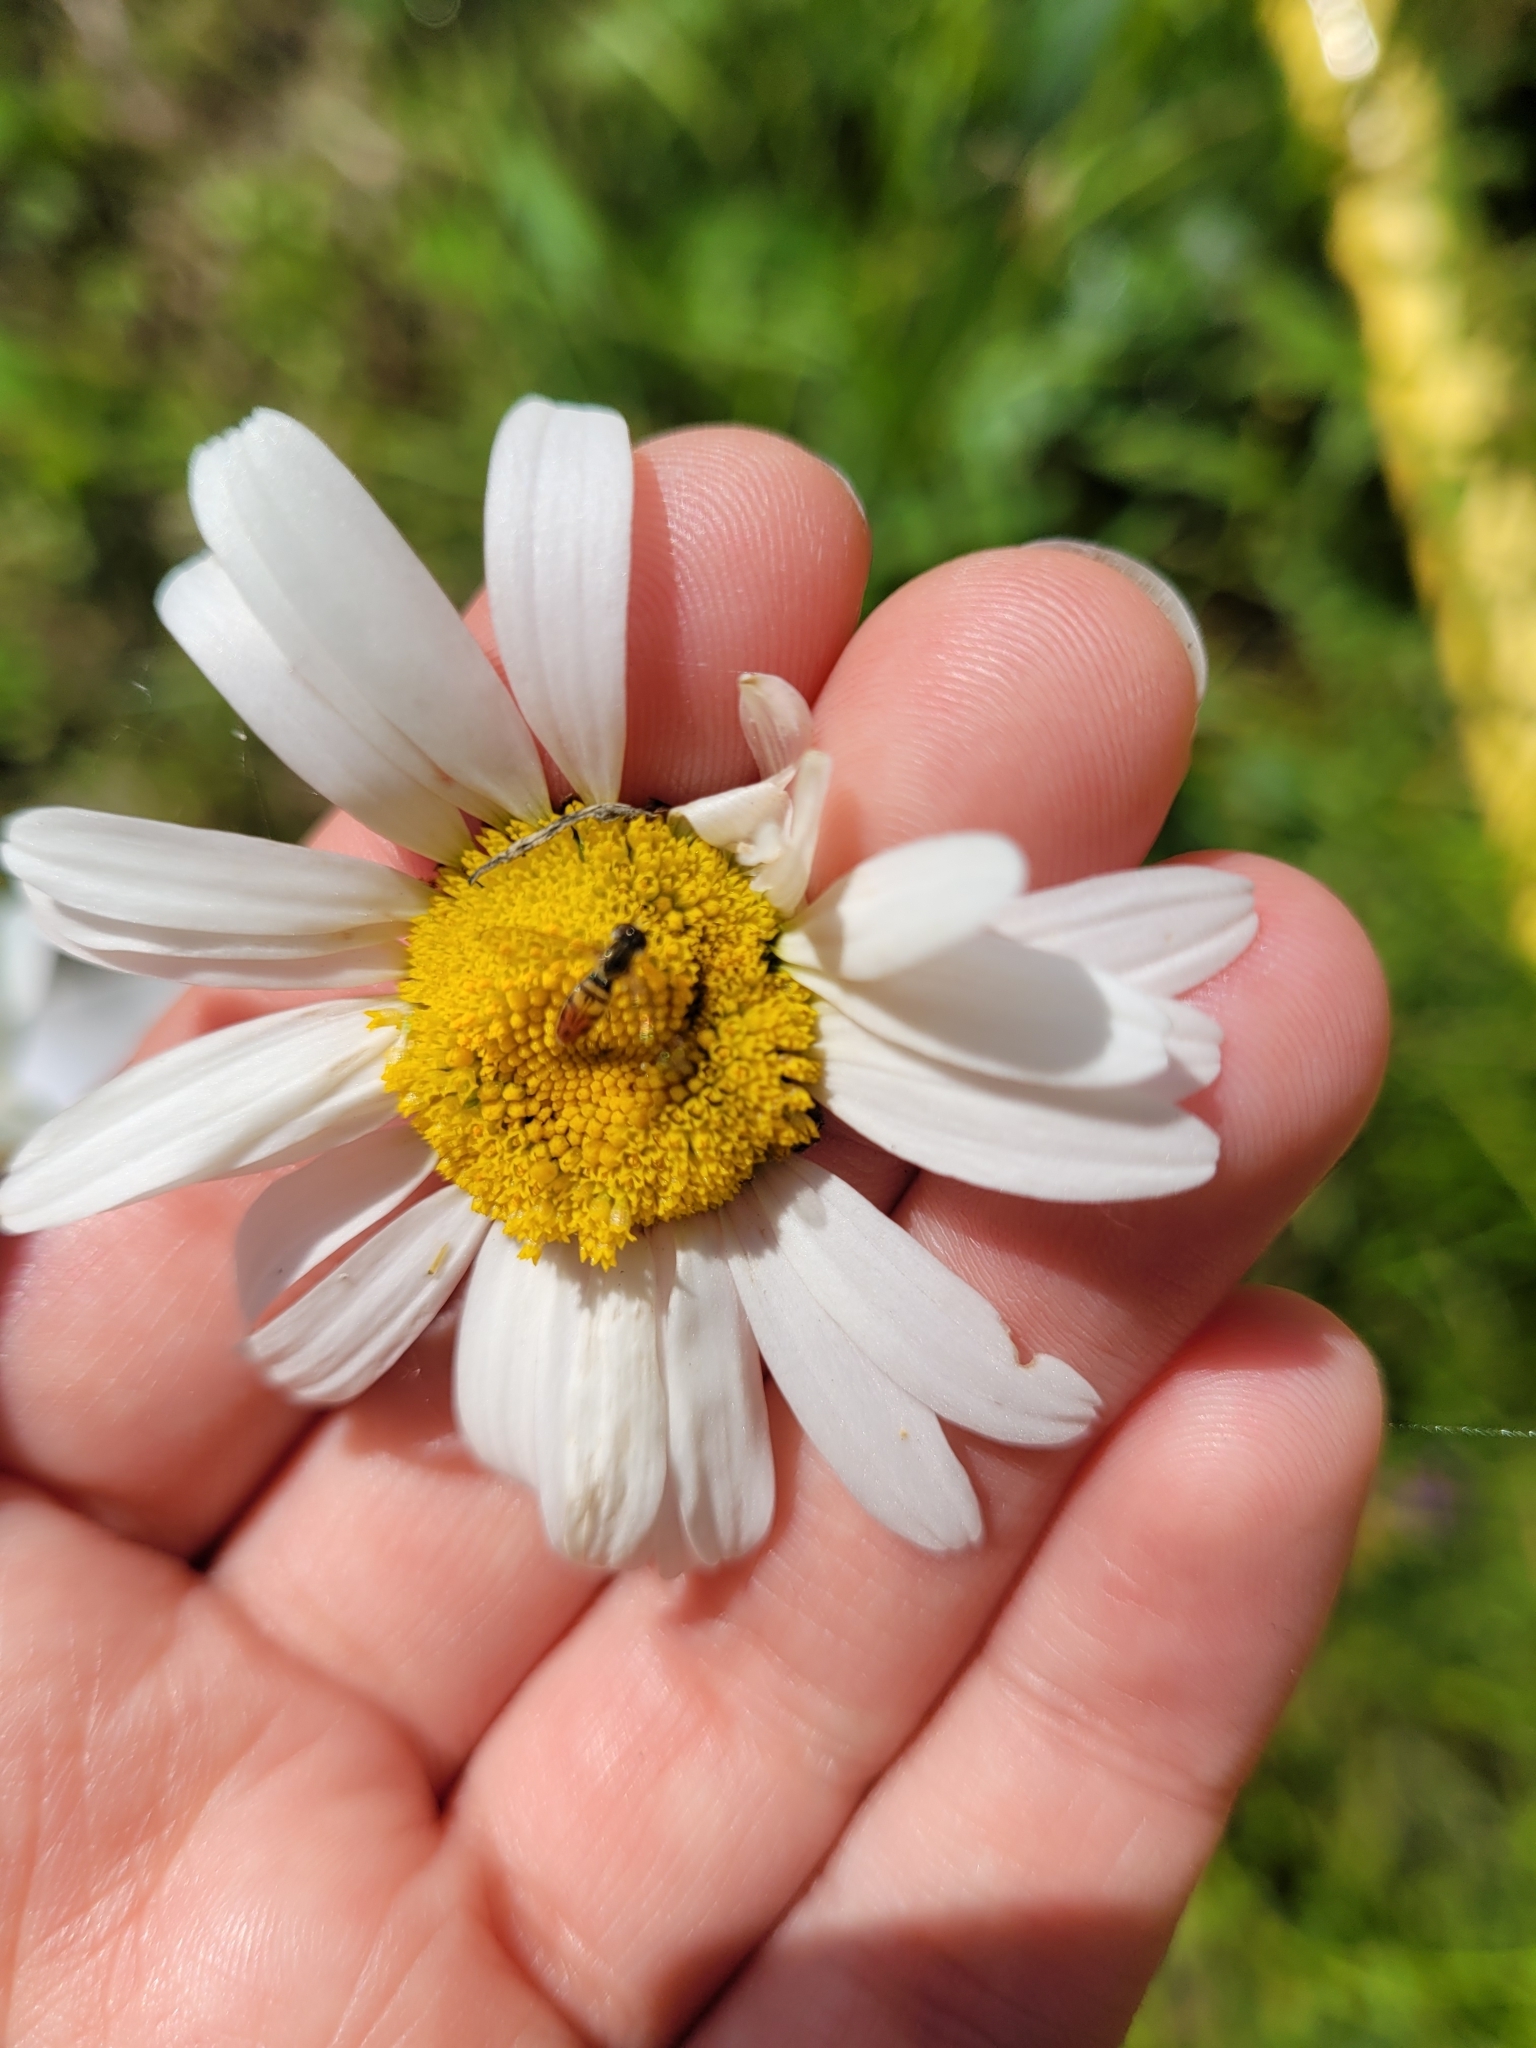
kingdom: Animalia
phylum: Arthropoda
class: Insecta
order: Diptera
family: Syrphidae
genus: Toxomerus
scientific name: Toxomerus marginatus
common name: Syrphid fly
